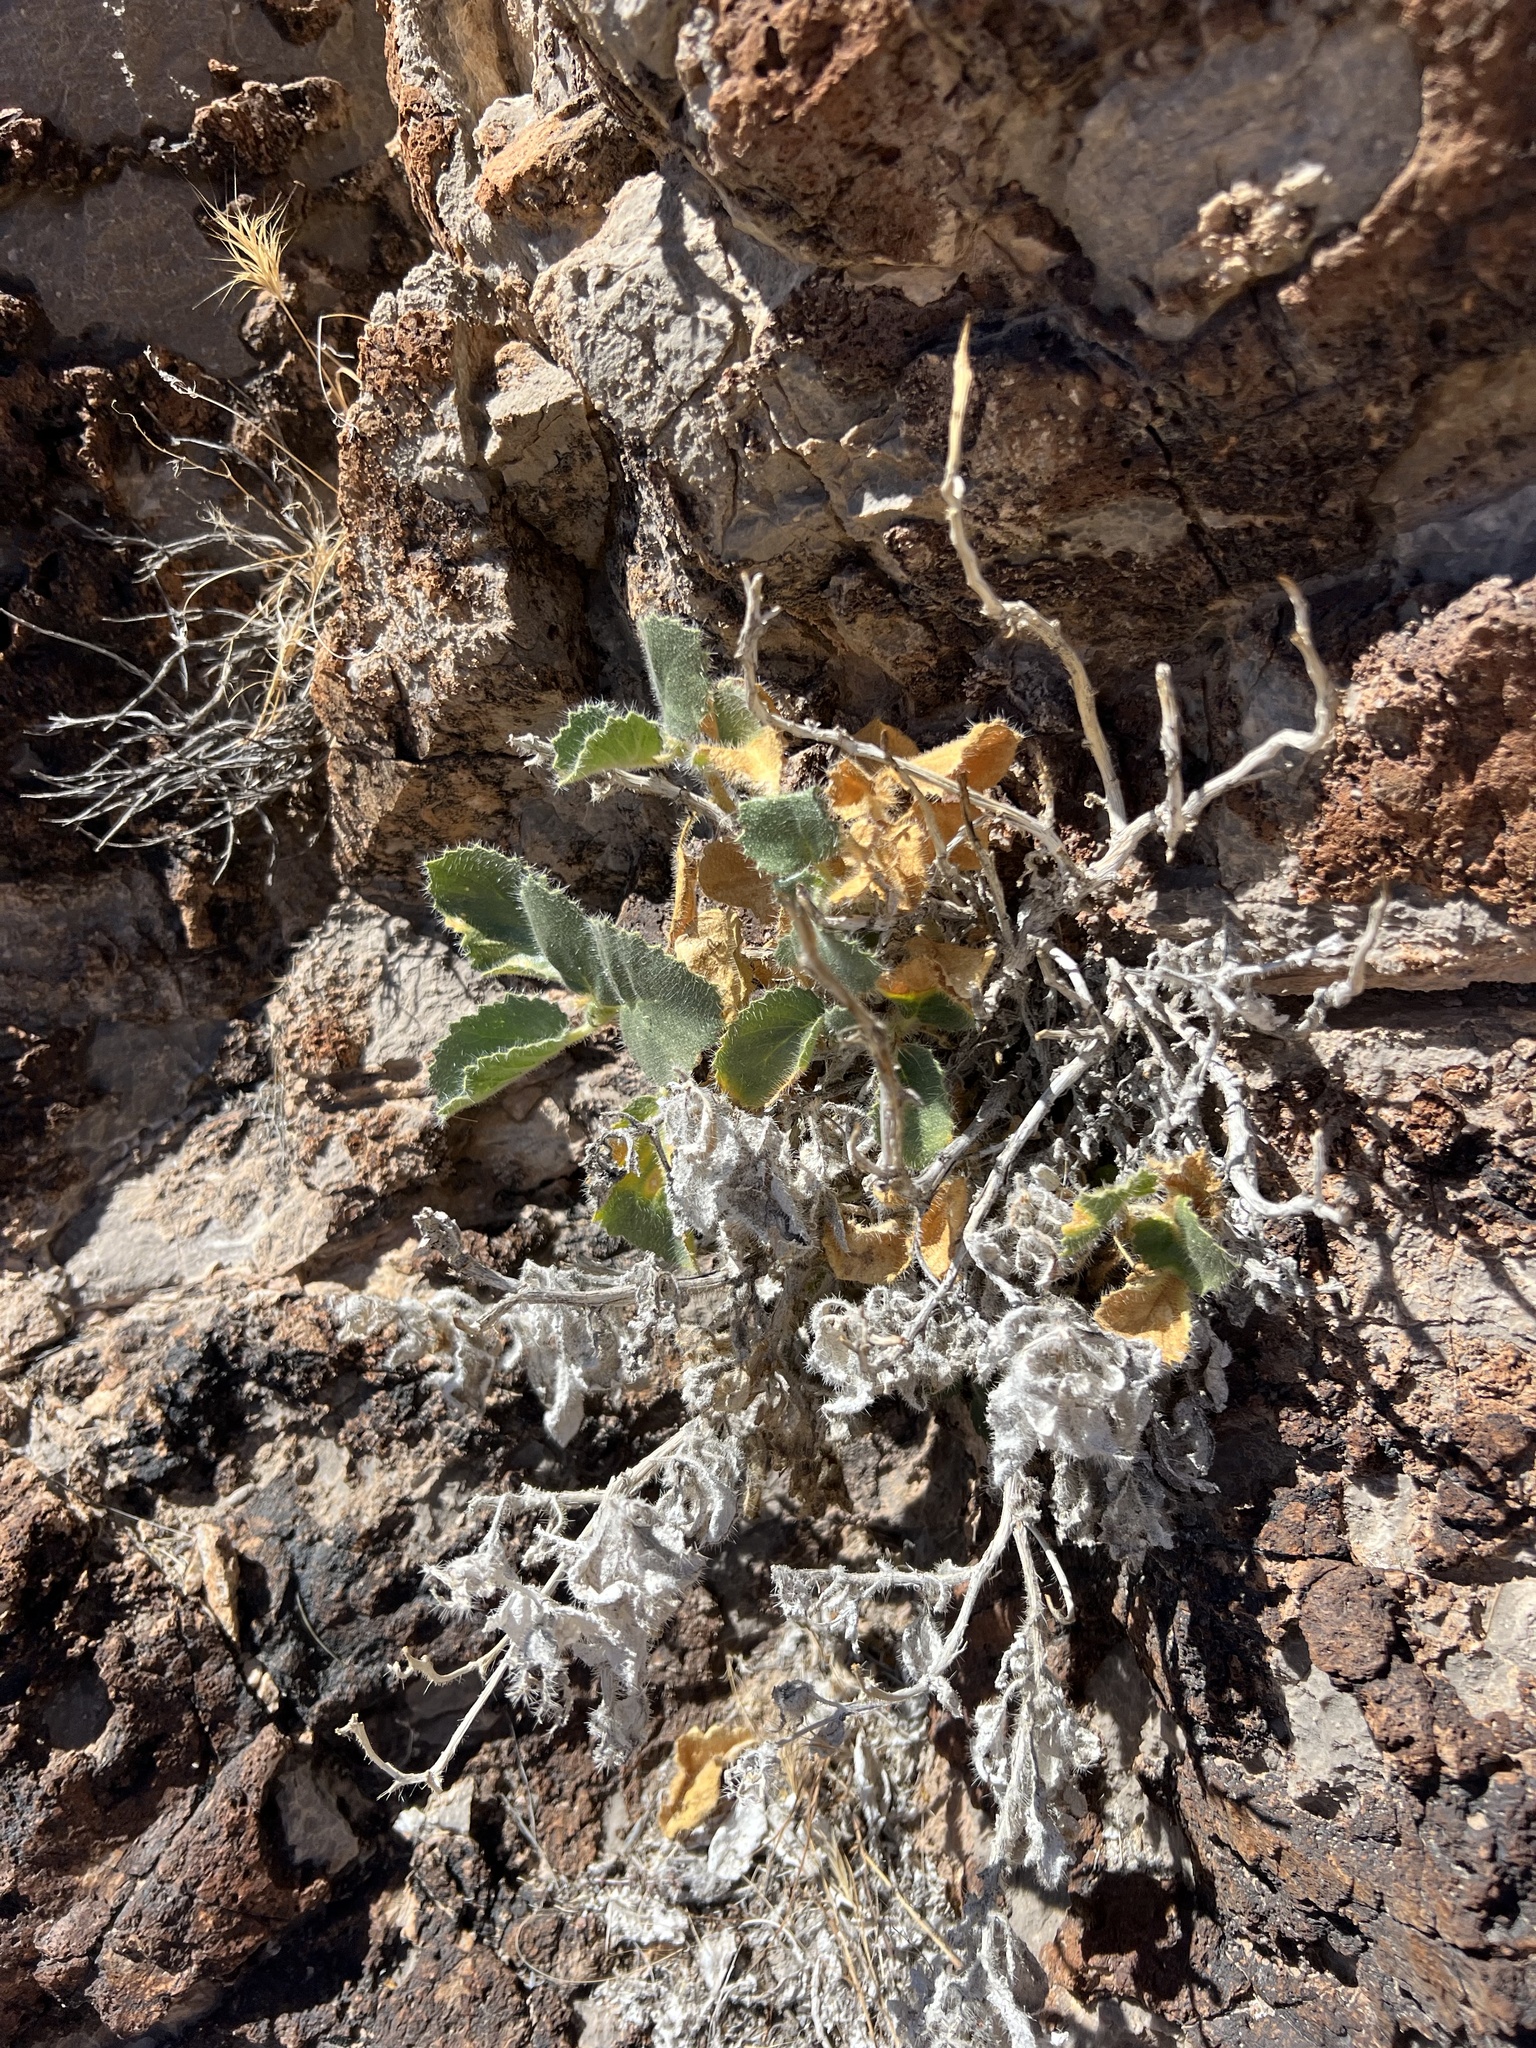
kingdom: Plantae
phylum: Tracheophyta
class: Magnoliopsida
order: Cornales
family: Loasaceae
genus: Eucnide
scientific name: Eucnide urens
